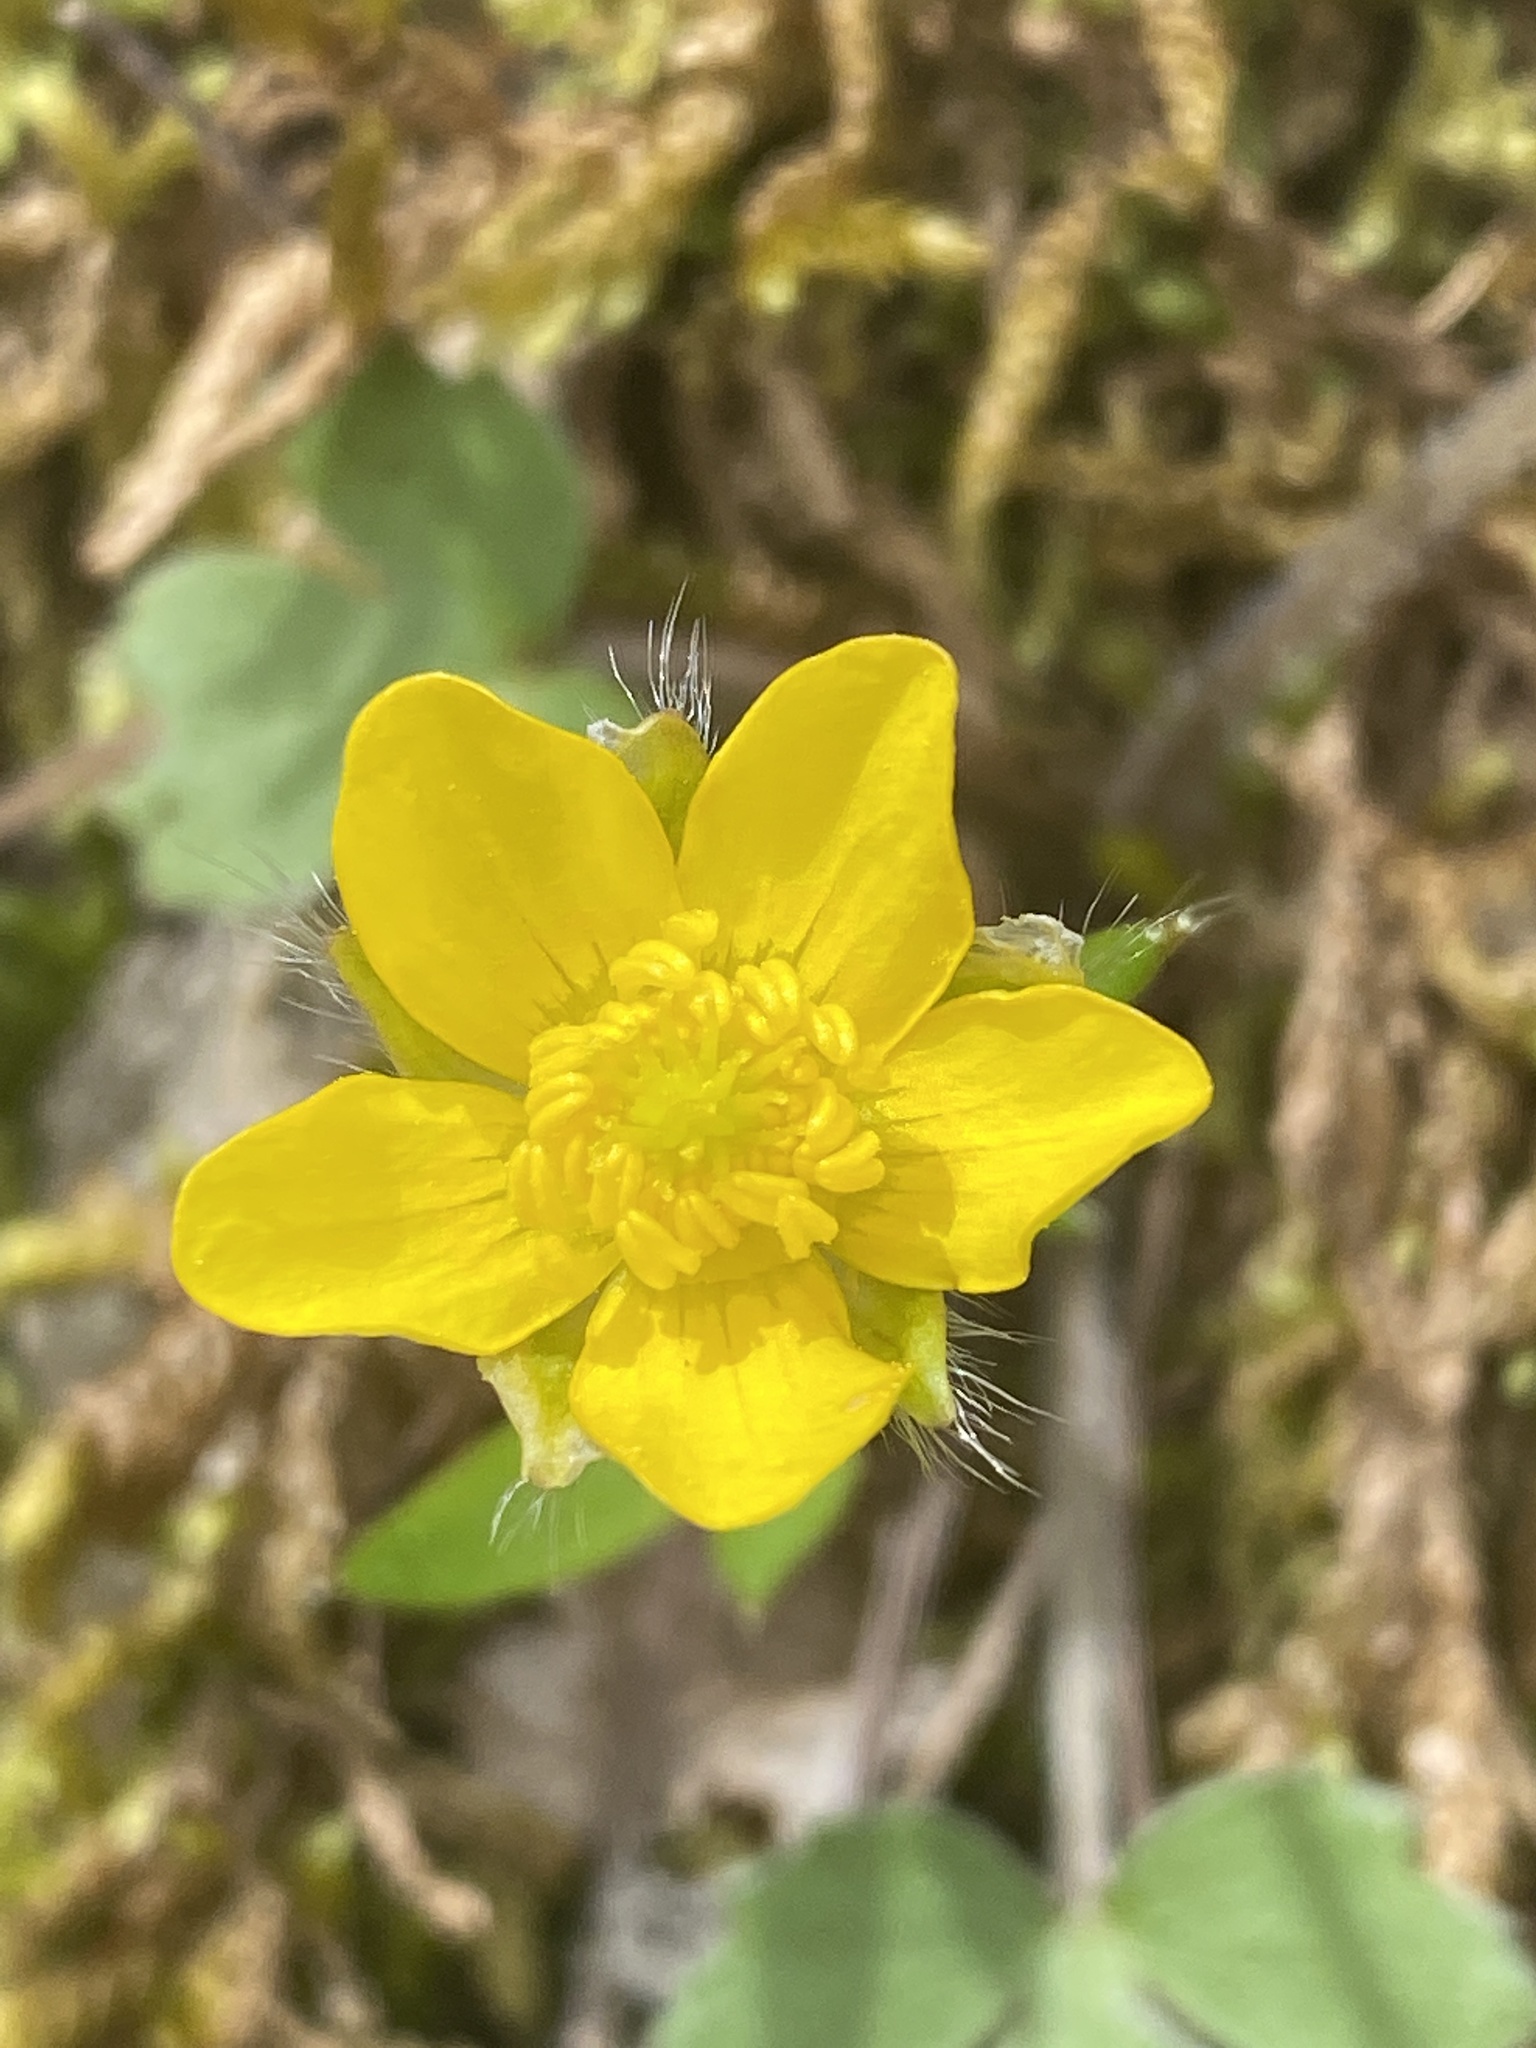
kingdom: Plantae
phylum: Tracheophyta
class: Magnoliopsida
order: Ranunculales
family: Ranunculaceae
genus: Ranunculus
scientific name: Ranunculus hispidus
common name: Bristly buttercup
